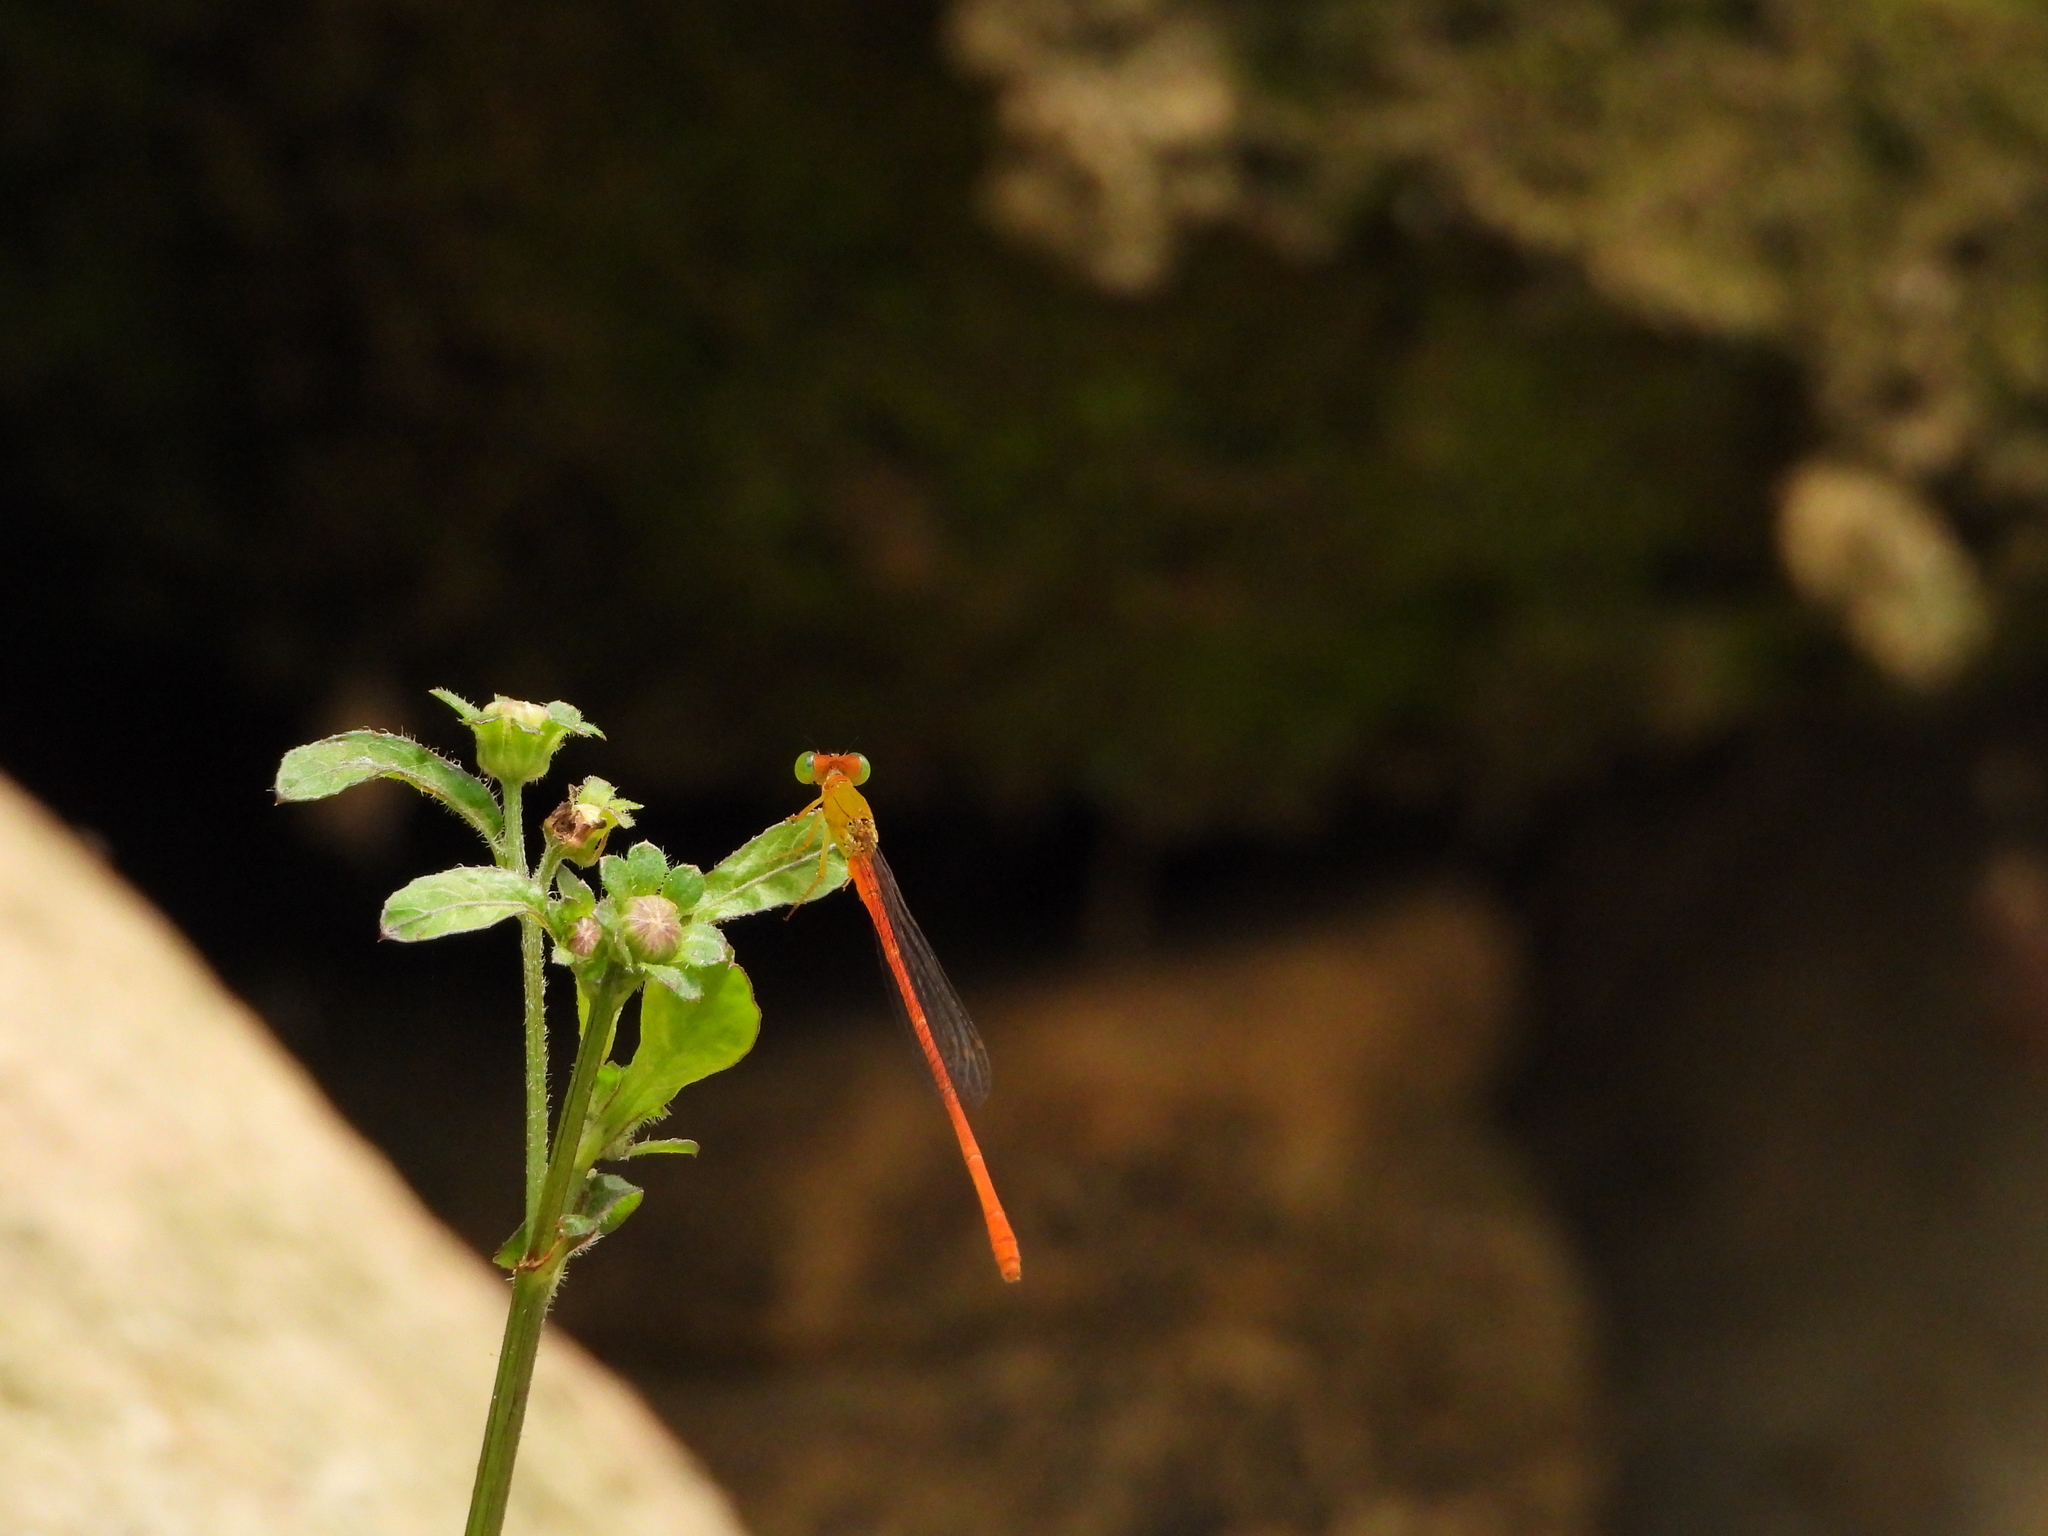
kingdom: Animalia
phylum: Arthropoda
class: Insecta
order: Odonata
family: Coenagrionidae
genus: Ceriagrion
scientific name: Ceriagrion auranticum
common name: Orange-tailed sprite
